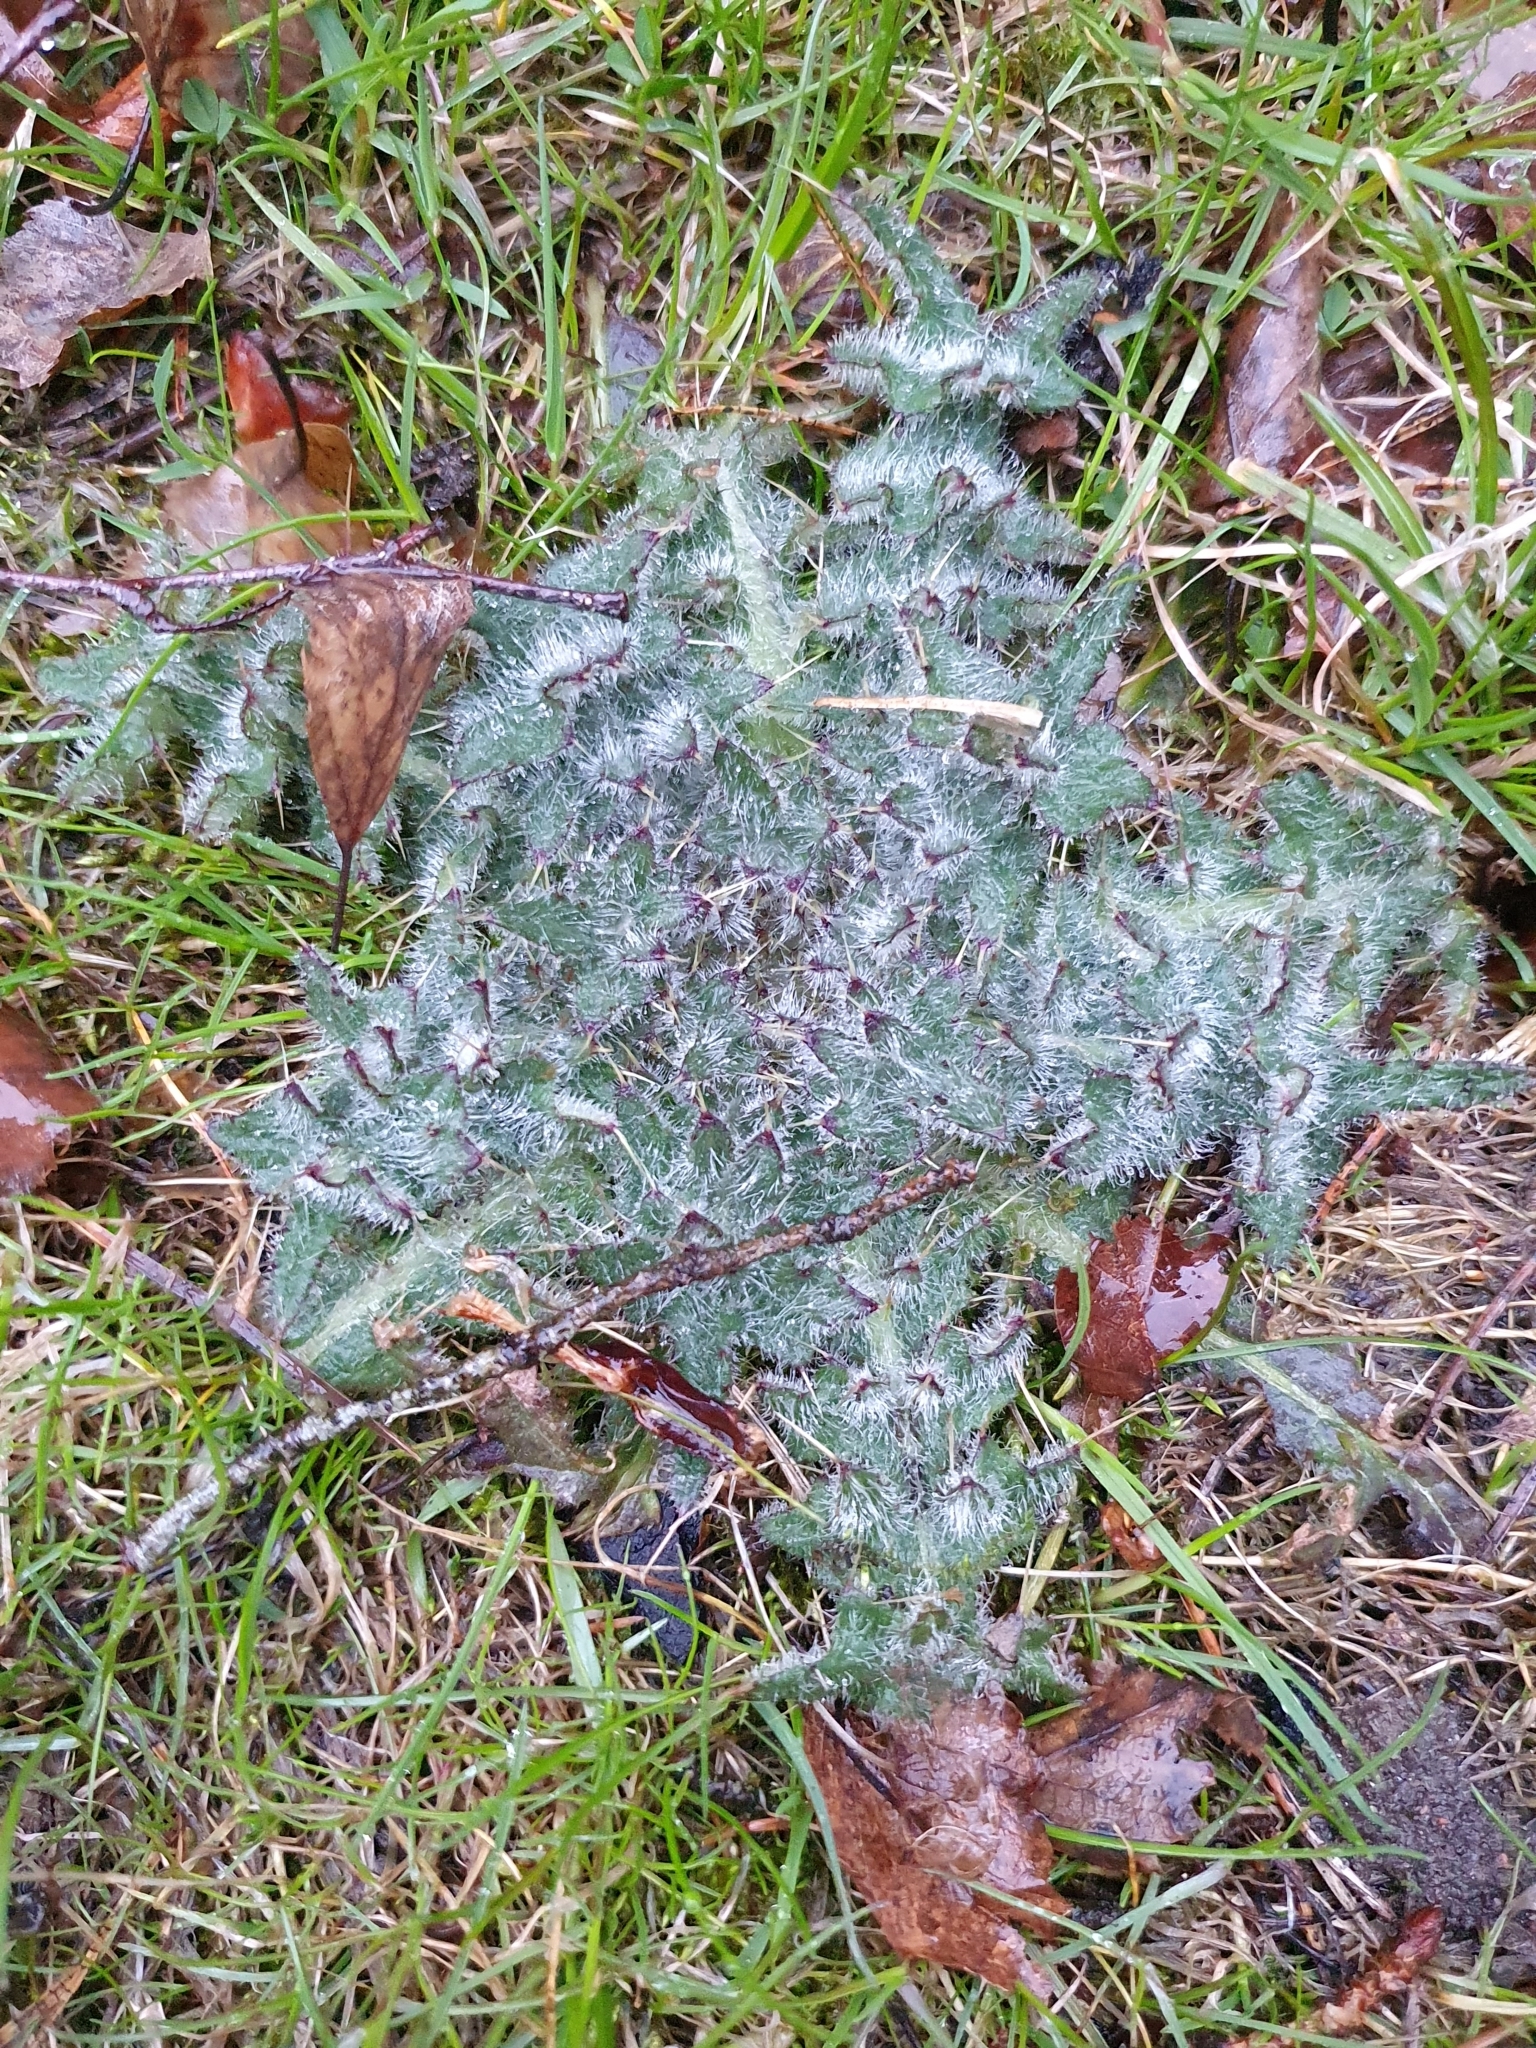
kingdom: Plantae
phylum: Tracheophyta
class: Magnoliopsida
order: Asterales
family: Asteraceae
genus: Cirsium
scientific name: Cirsium vulgare
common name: Bull thistle
